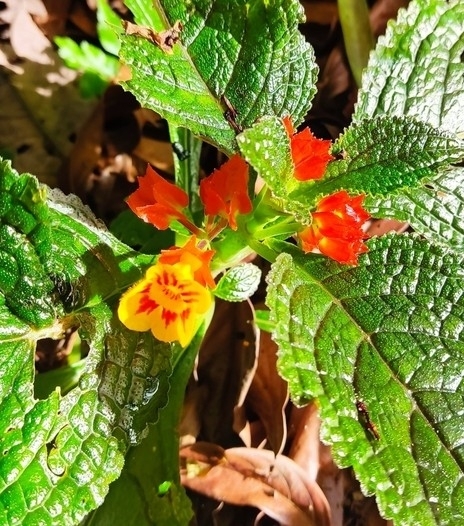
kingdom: Plantae
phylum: Tracheophyta
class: Magnoliopsida
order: Lamiales
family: Gesneriaceae
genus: Chrysothemis
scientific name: Chrysothemis pulchella
